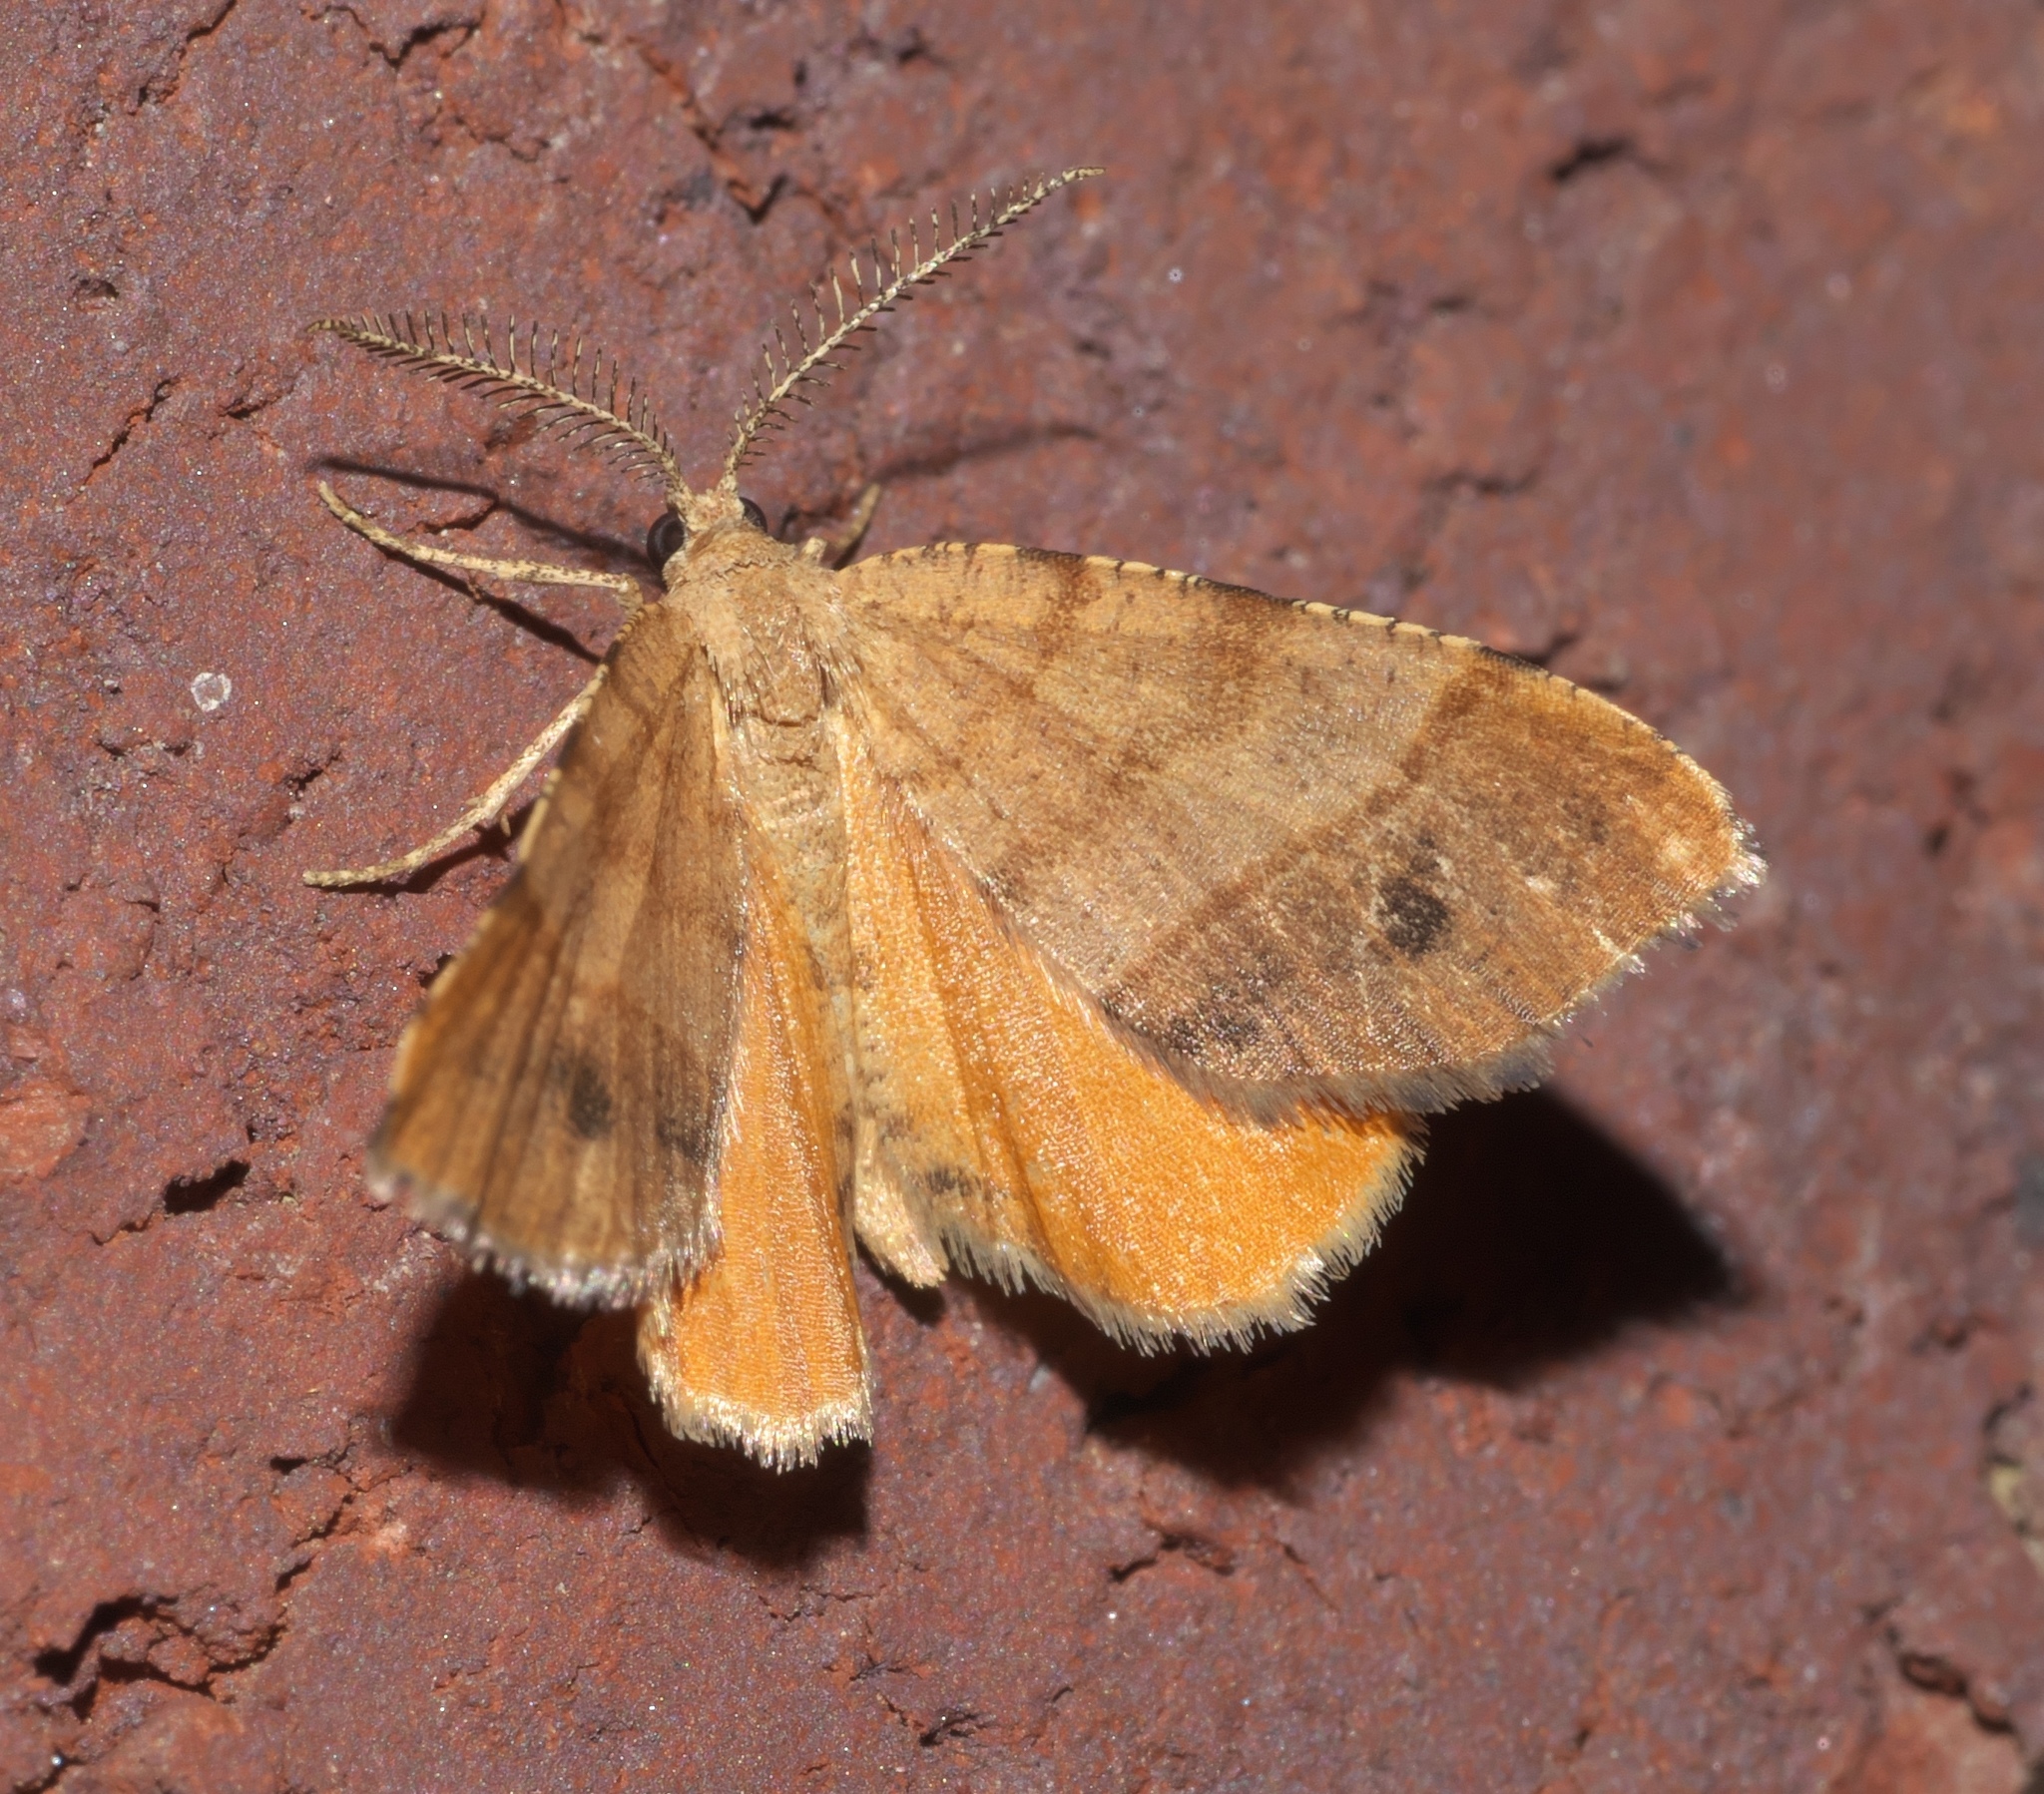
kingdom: Animalia
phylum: Arthropoda
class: Insecta
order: Lepidoptera
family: Geometridae
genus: Mellilla
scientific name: Mellilla xanthometata
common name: Orange wing moth
